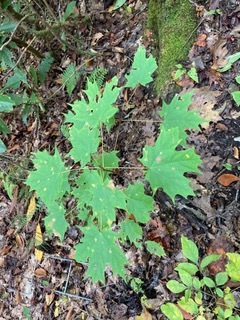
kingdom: Plantae
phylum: Tracheophyta
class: Magnoliopsida
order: Sapindales
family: Sapindaceae
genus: Acer
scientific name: Acer saccharum
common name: Sugar maple
